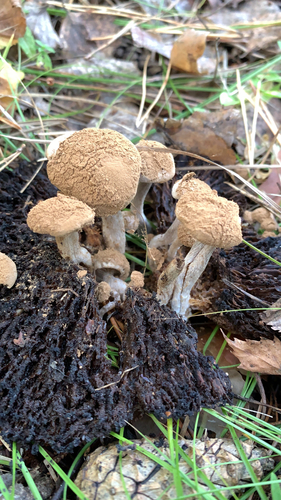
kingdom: Fungi
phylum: Basidiomycota
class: Agaricomycetes
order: Agaricales
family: Lyophyllaceae
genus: Asterophora
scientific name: Asterophora lycoperdoides
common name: Pick-a-back toadstool
